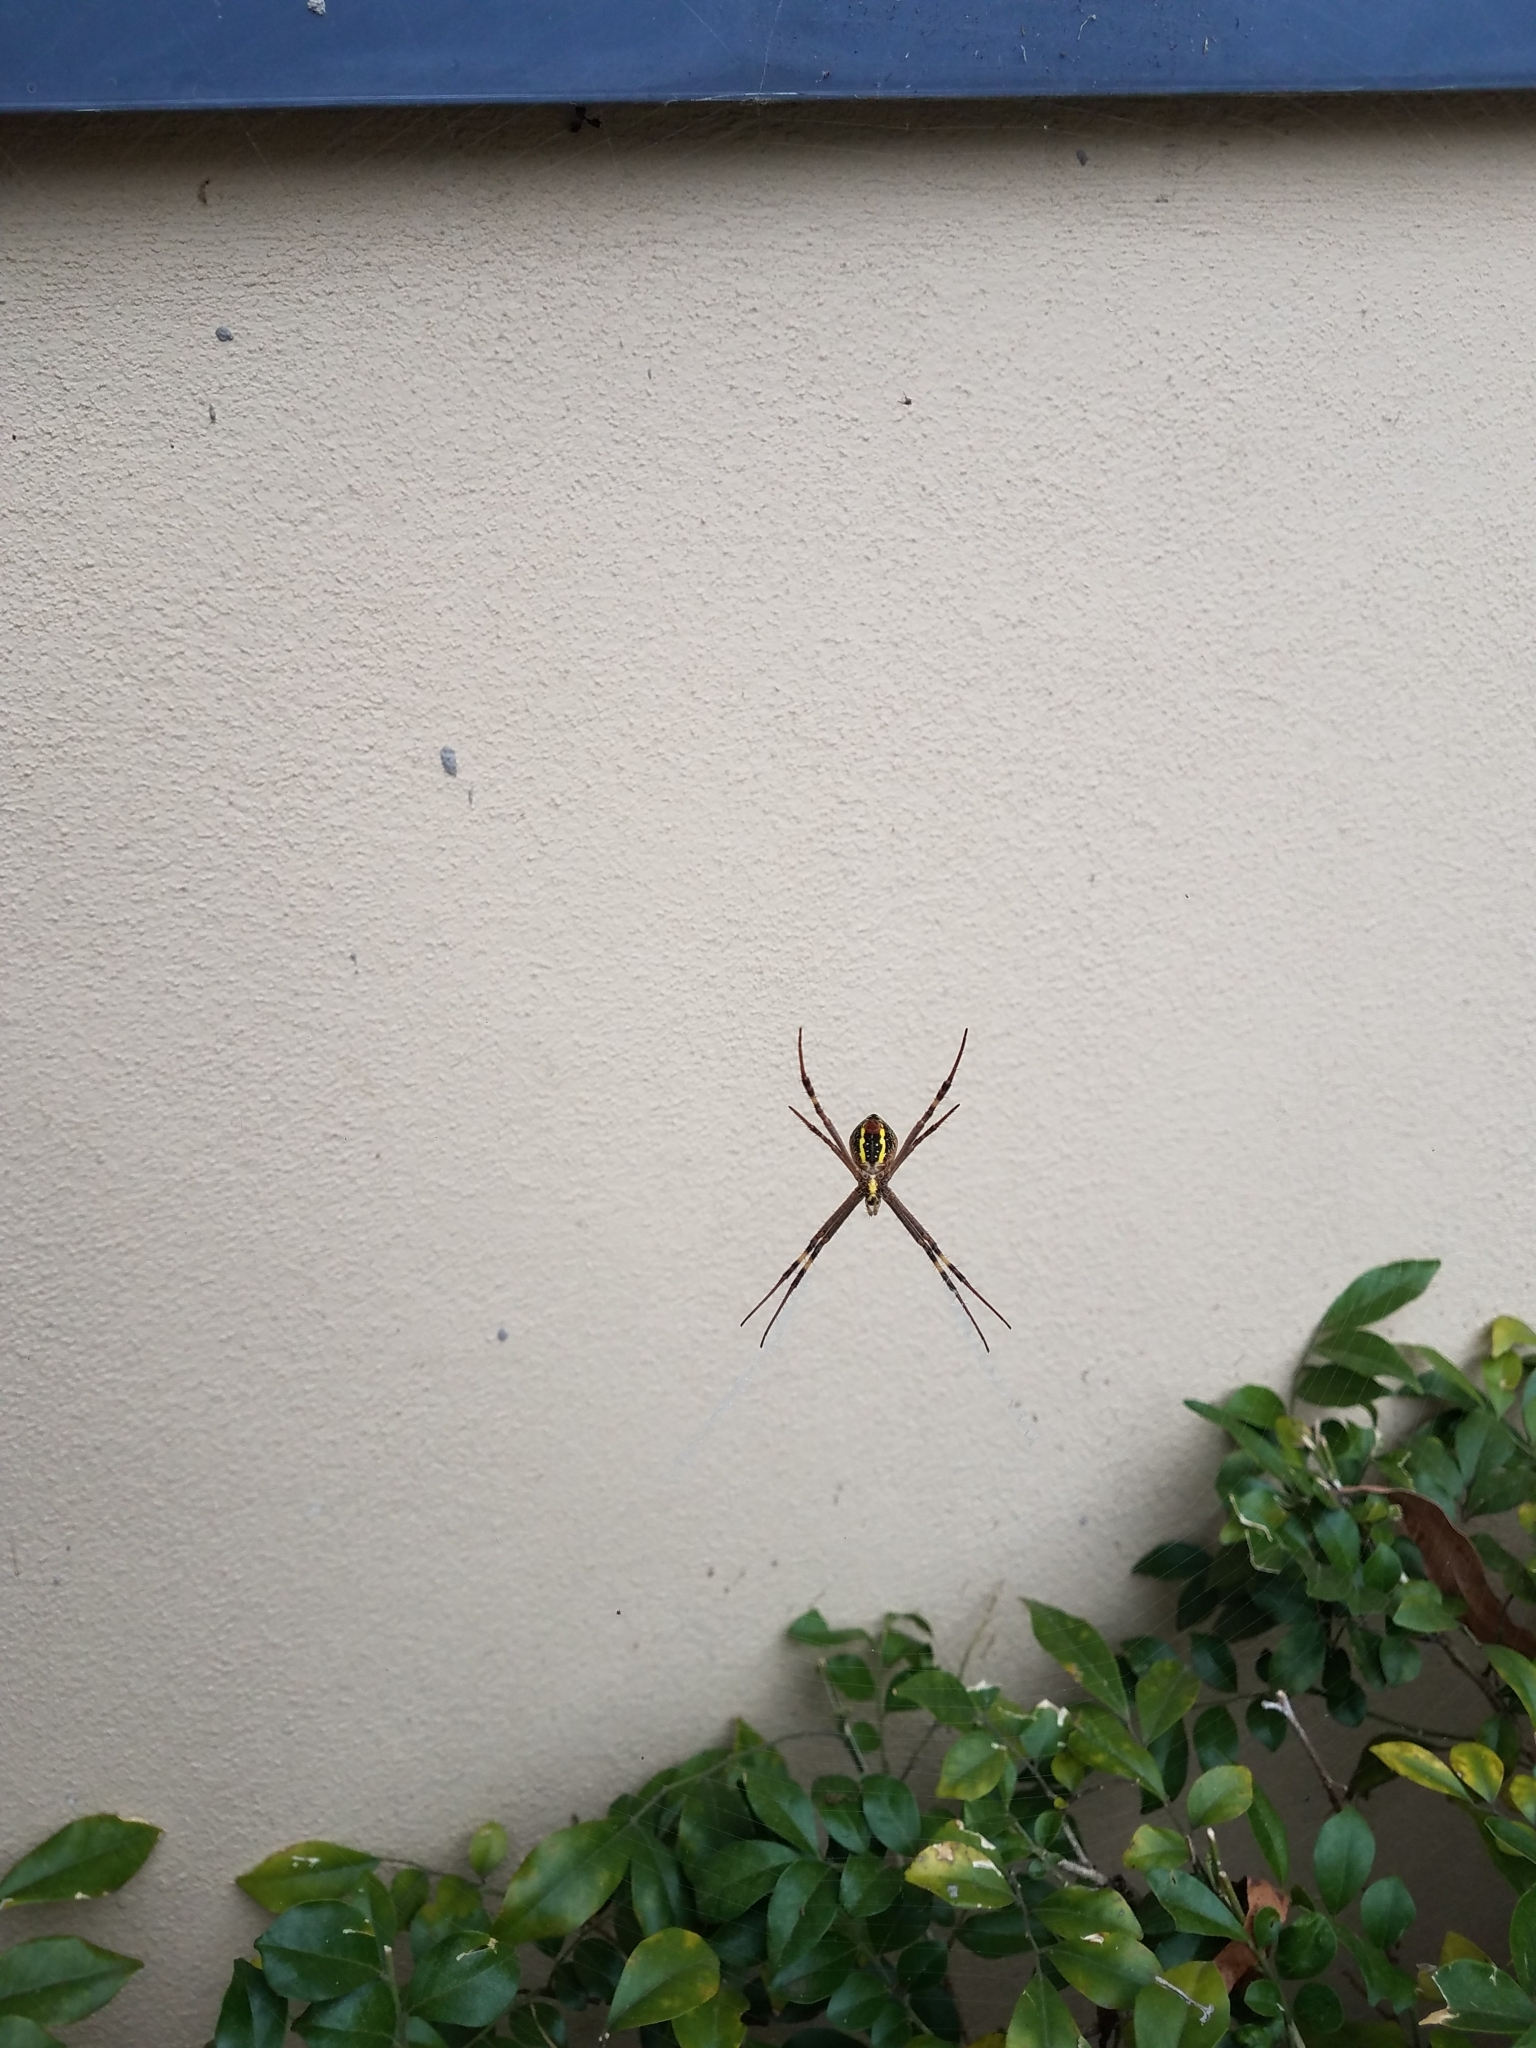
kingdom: Animalia
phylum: Arthropoda
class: Arachnida
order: Araneae
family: Araneidae
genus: Argiope
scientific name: Argiope keyserlingi
